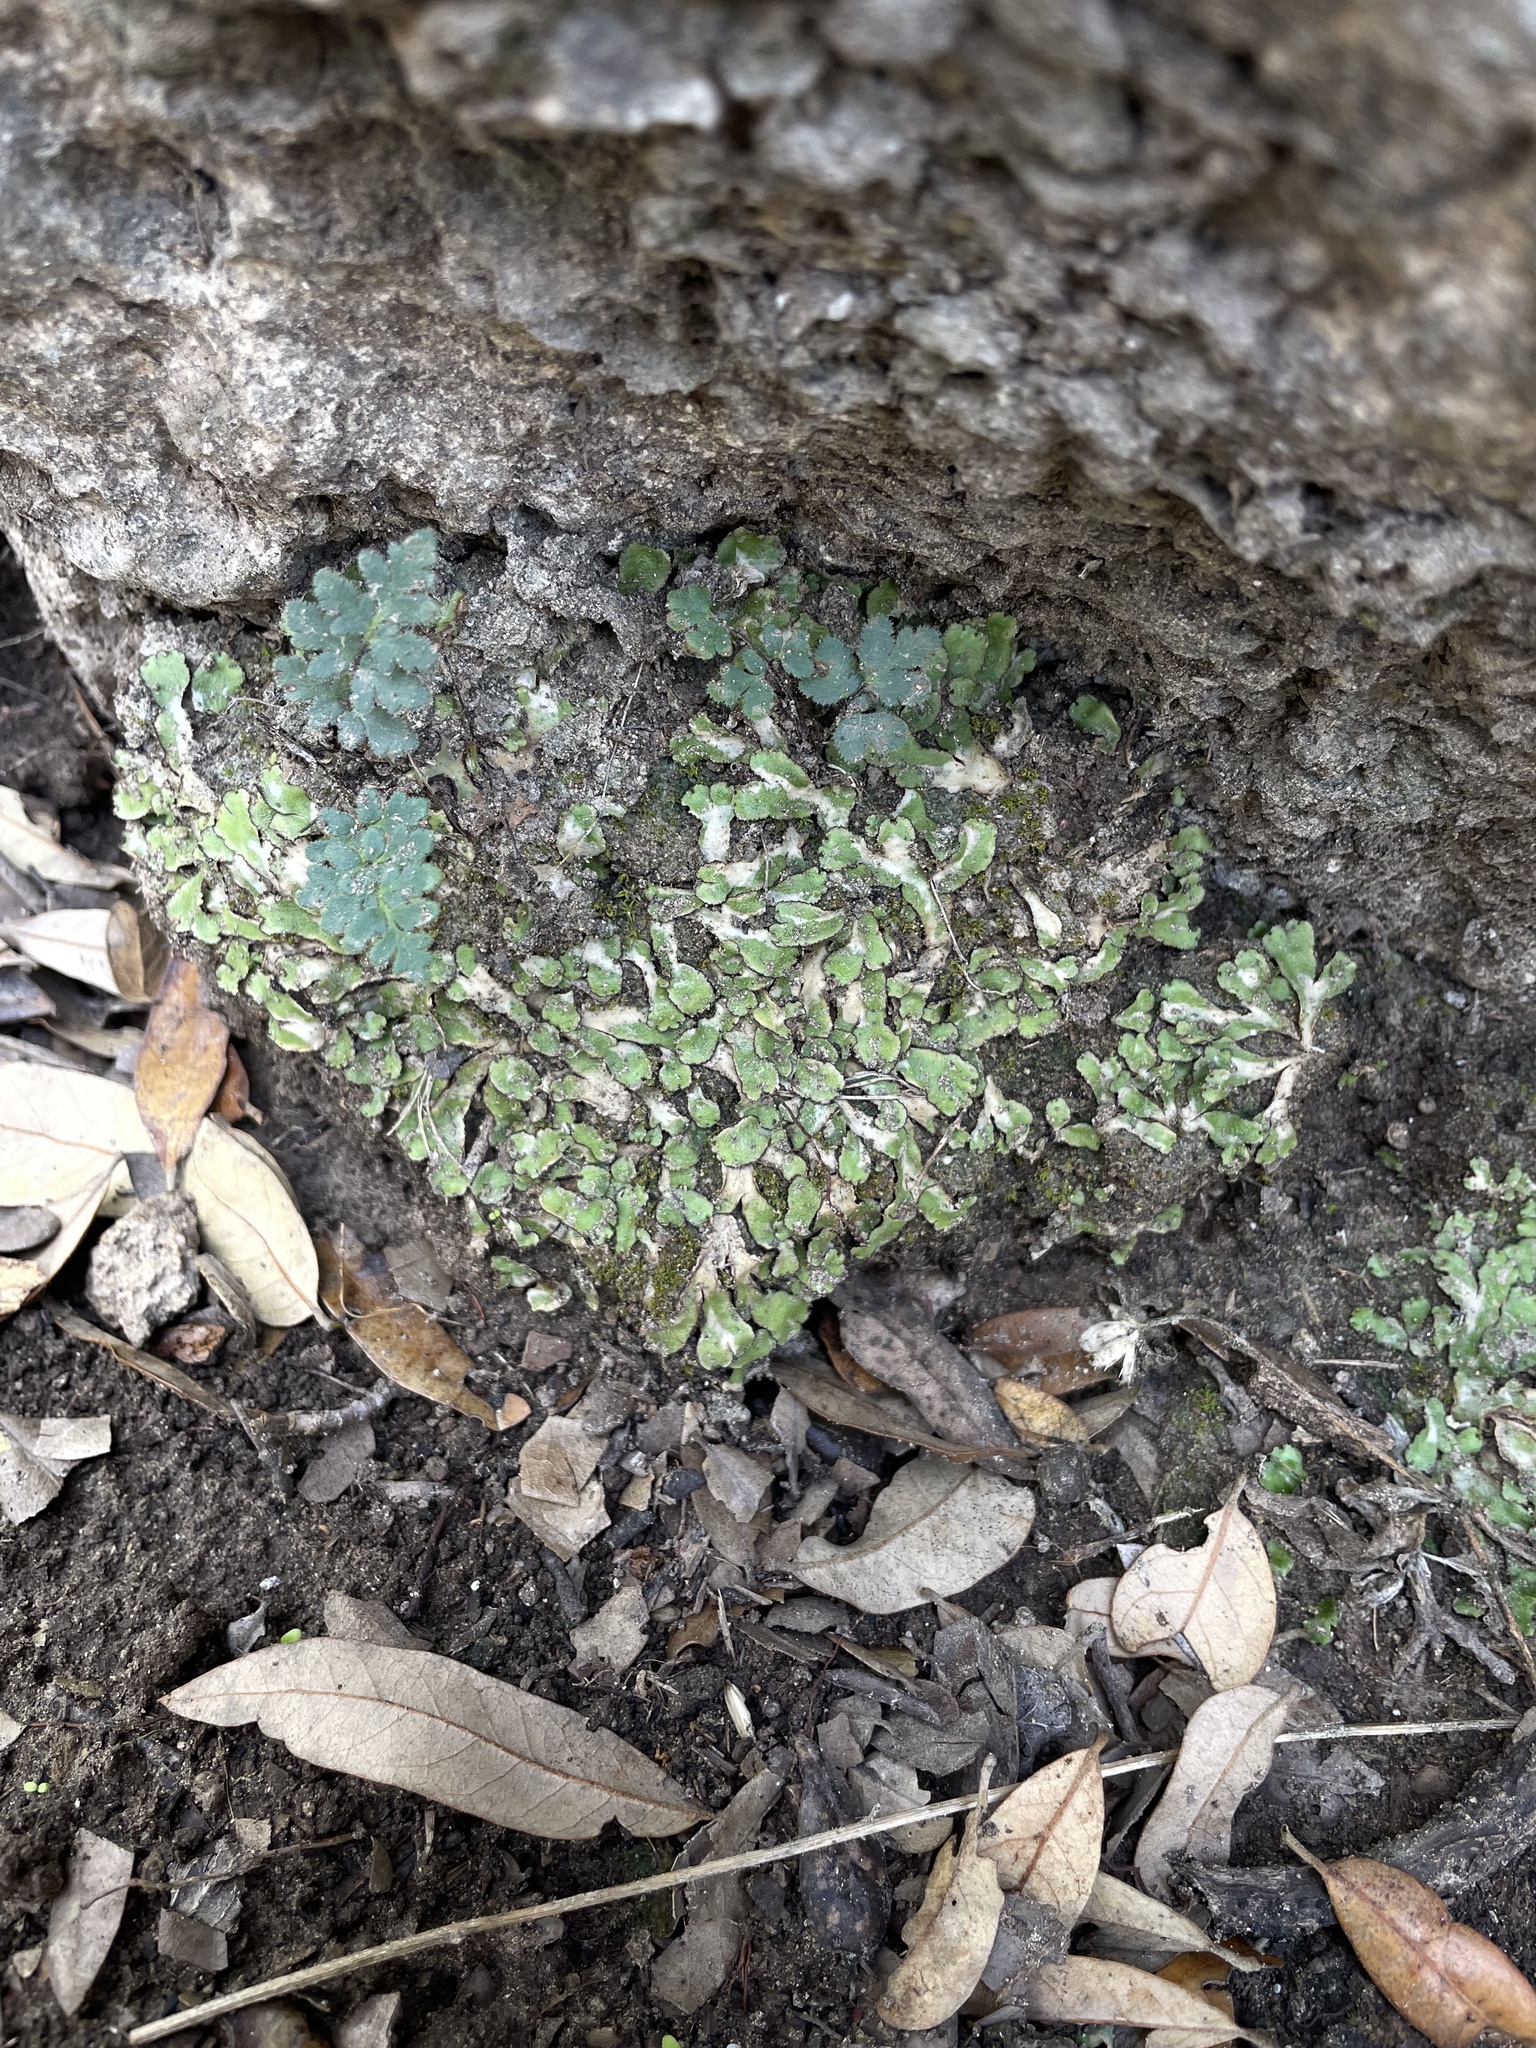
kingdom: Plantae
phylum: Marchantiophyta
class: Marchantiopsida
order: Marchantiales
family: Aytoniaceae
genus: Reboulia
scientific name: Reboulia hemisphaerica
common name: Purple-margined liverwort
